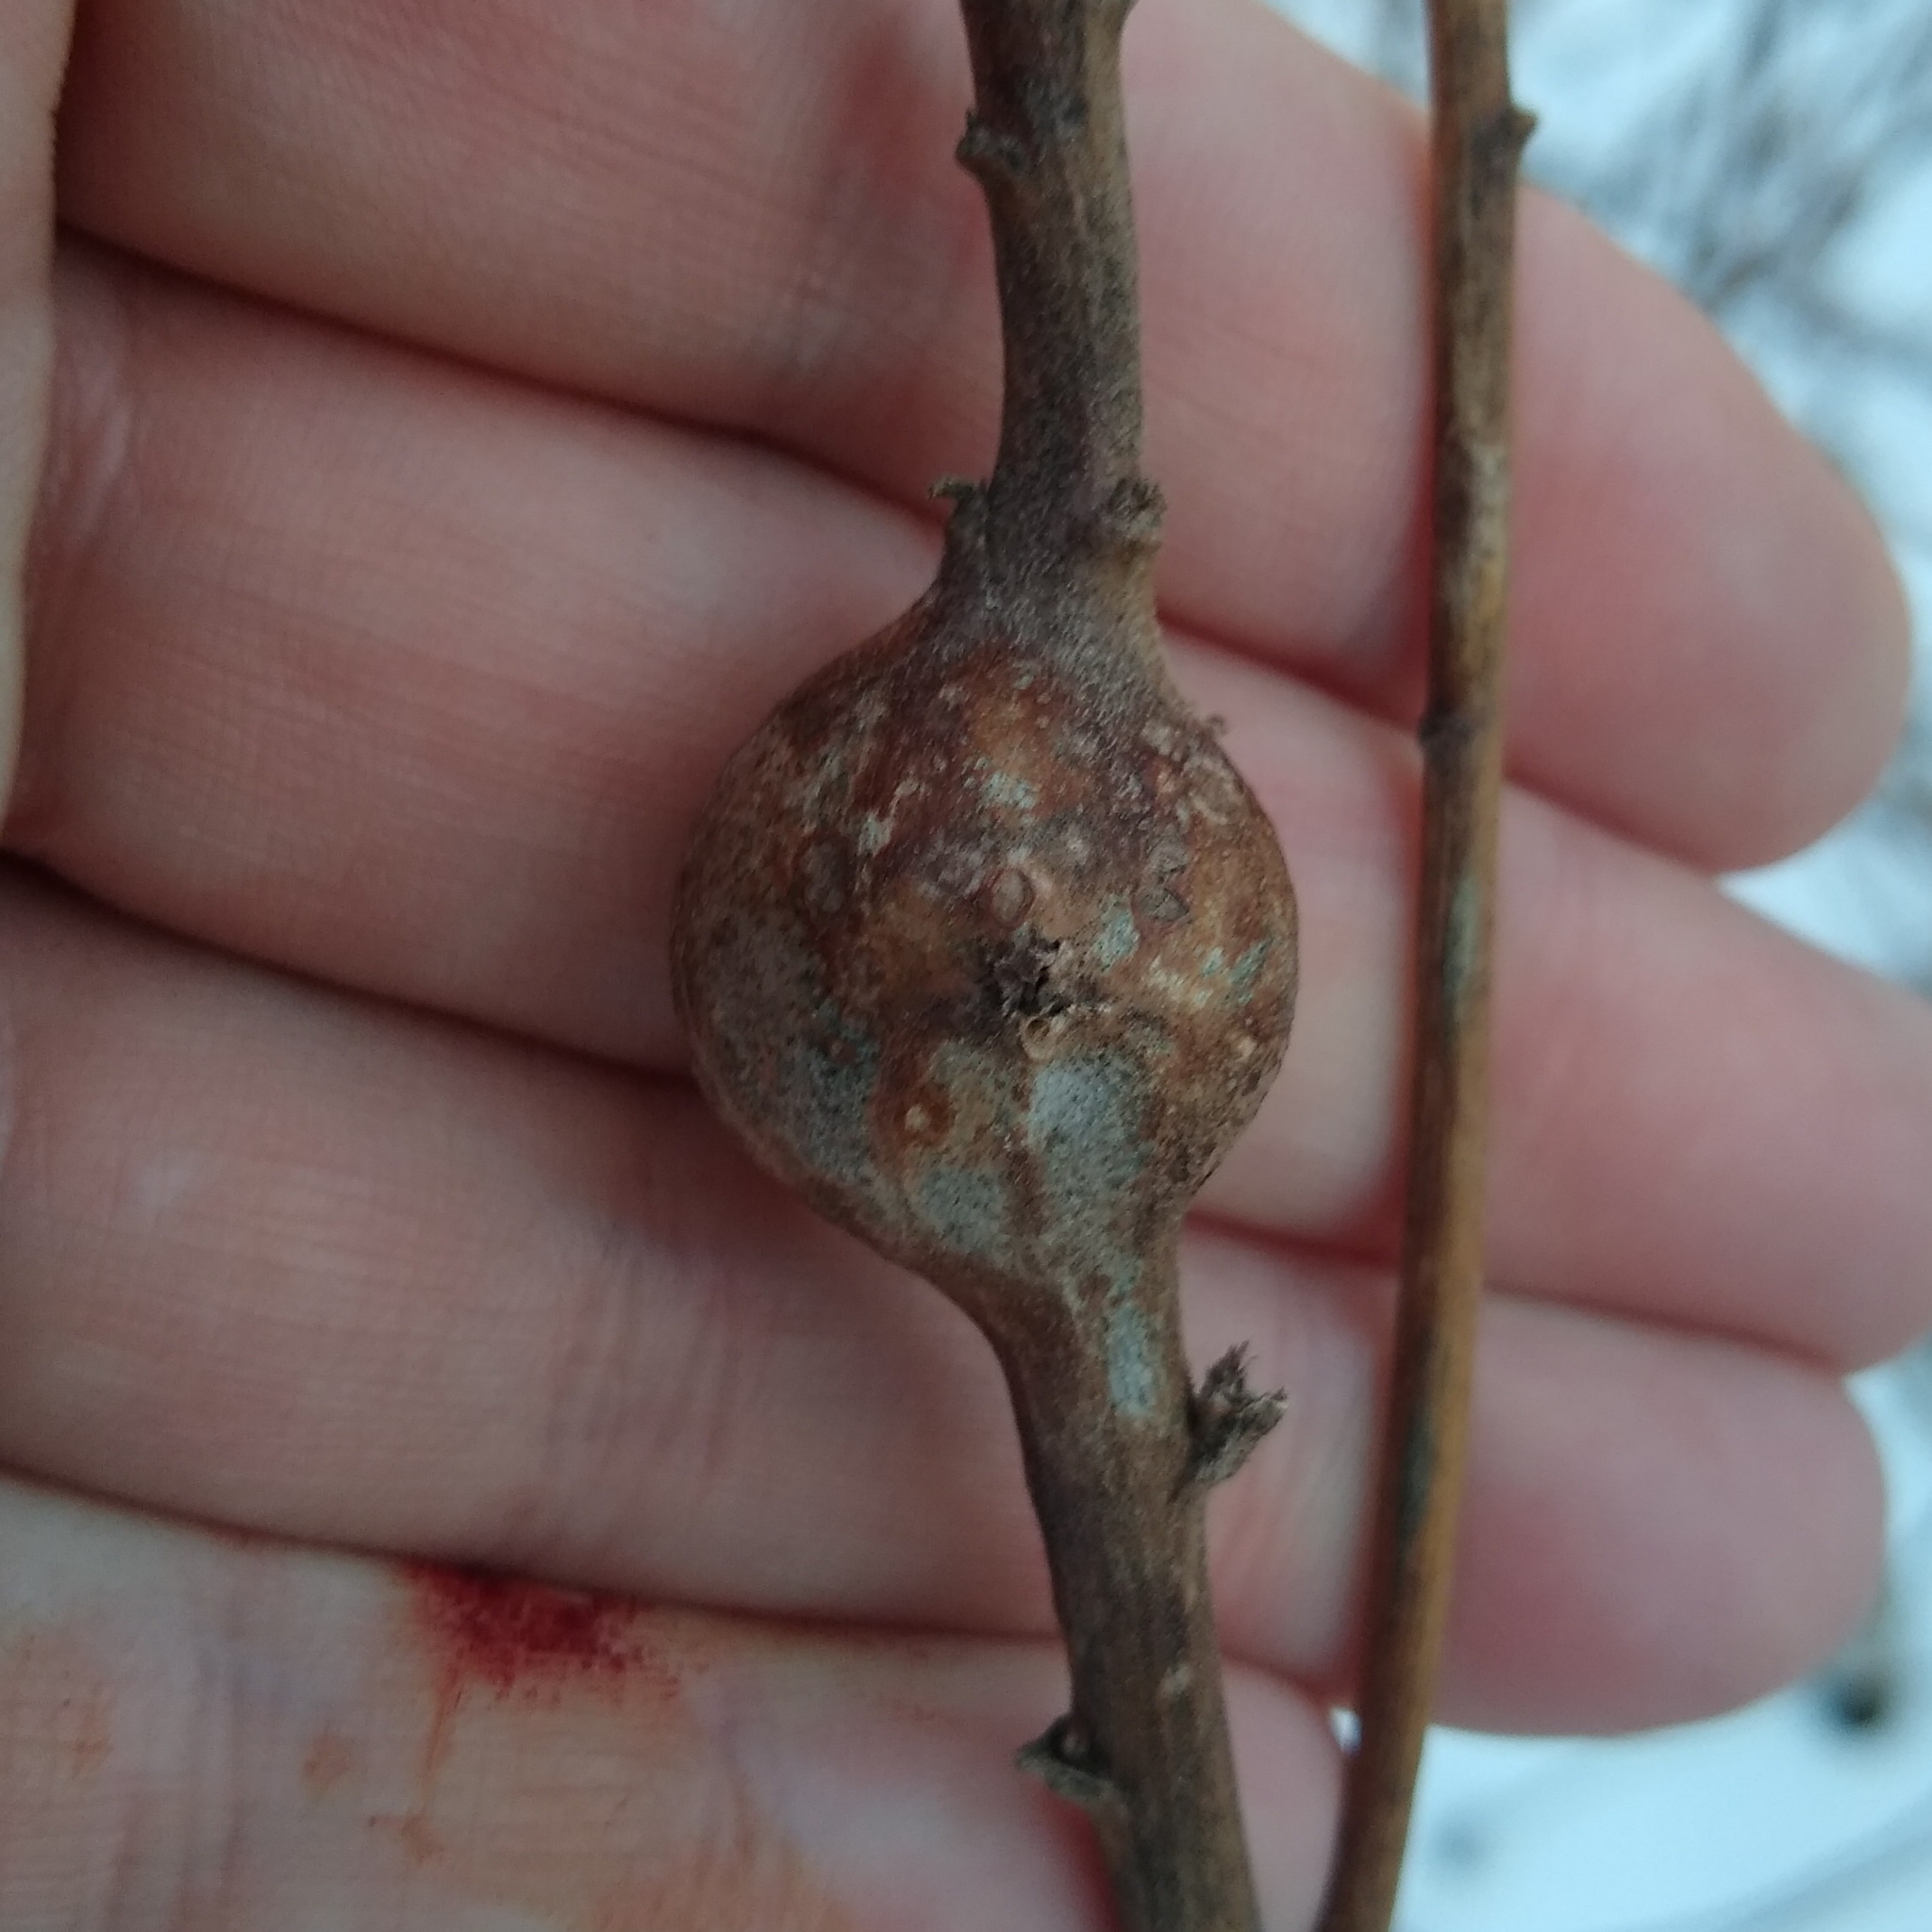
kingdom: Animalia
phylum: Arthropoda
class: Insecta
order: Diptera
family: Tephritidae
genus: Eurosta
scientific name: Eurosta solidaginis
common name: Goldenrod gall fly
